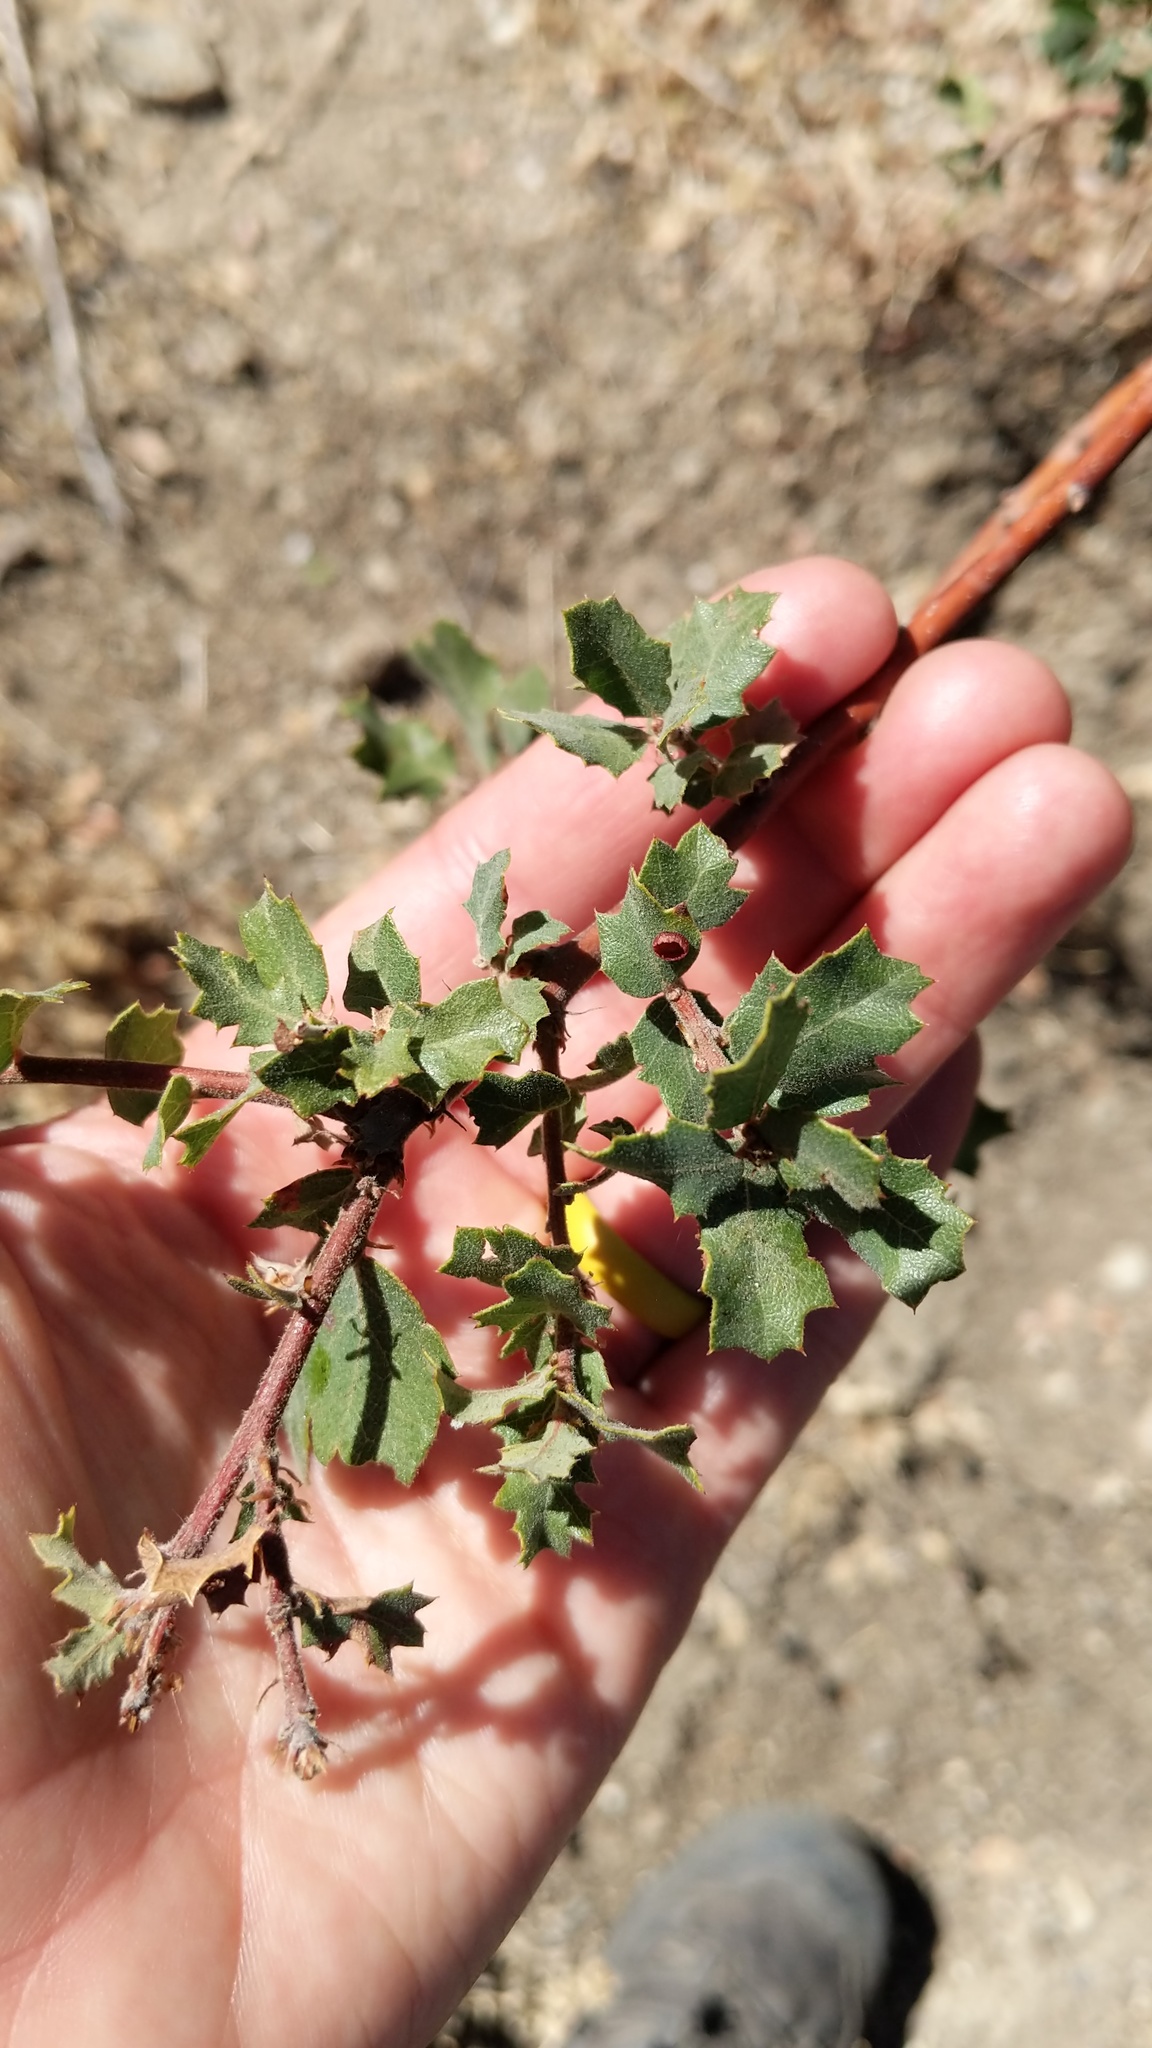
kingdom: Animalia
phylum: Arthropoda
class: Insecta
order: Hymenoptera
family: Cynipidae
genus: Andricus
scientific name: Andricus
